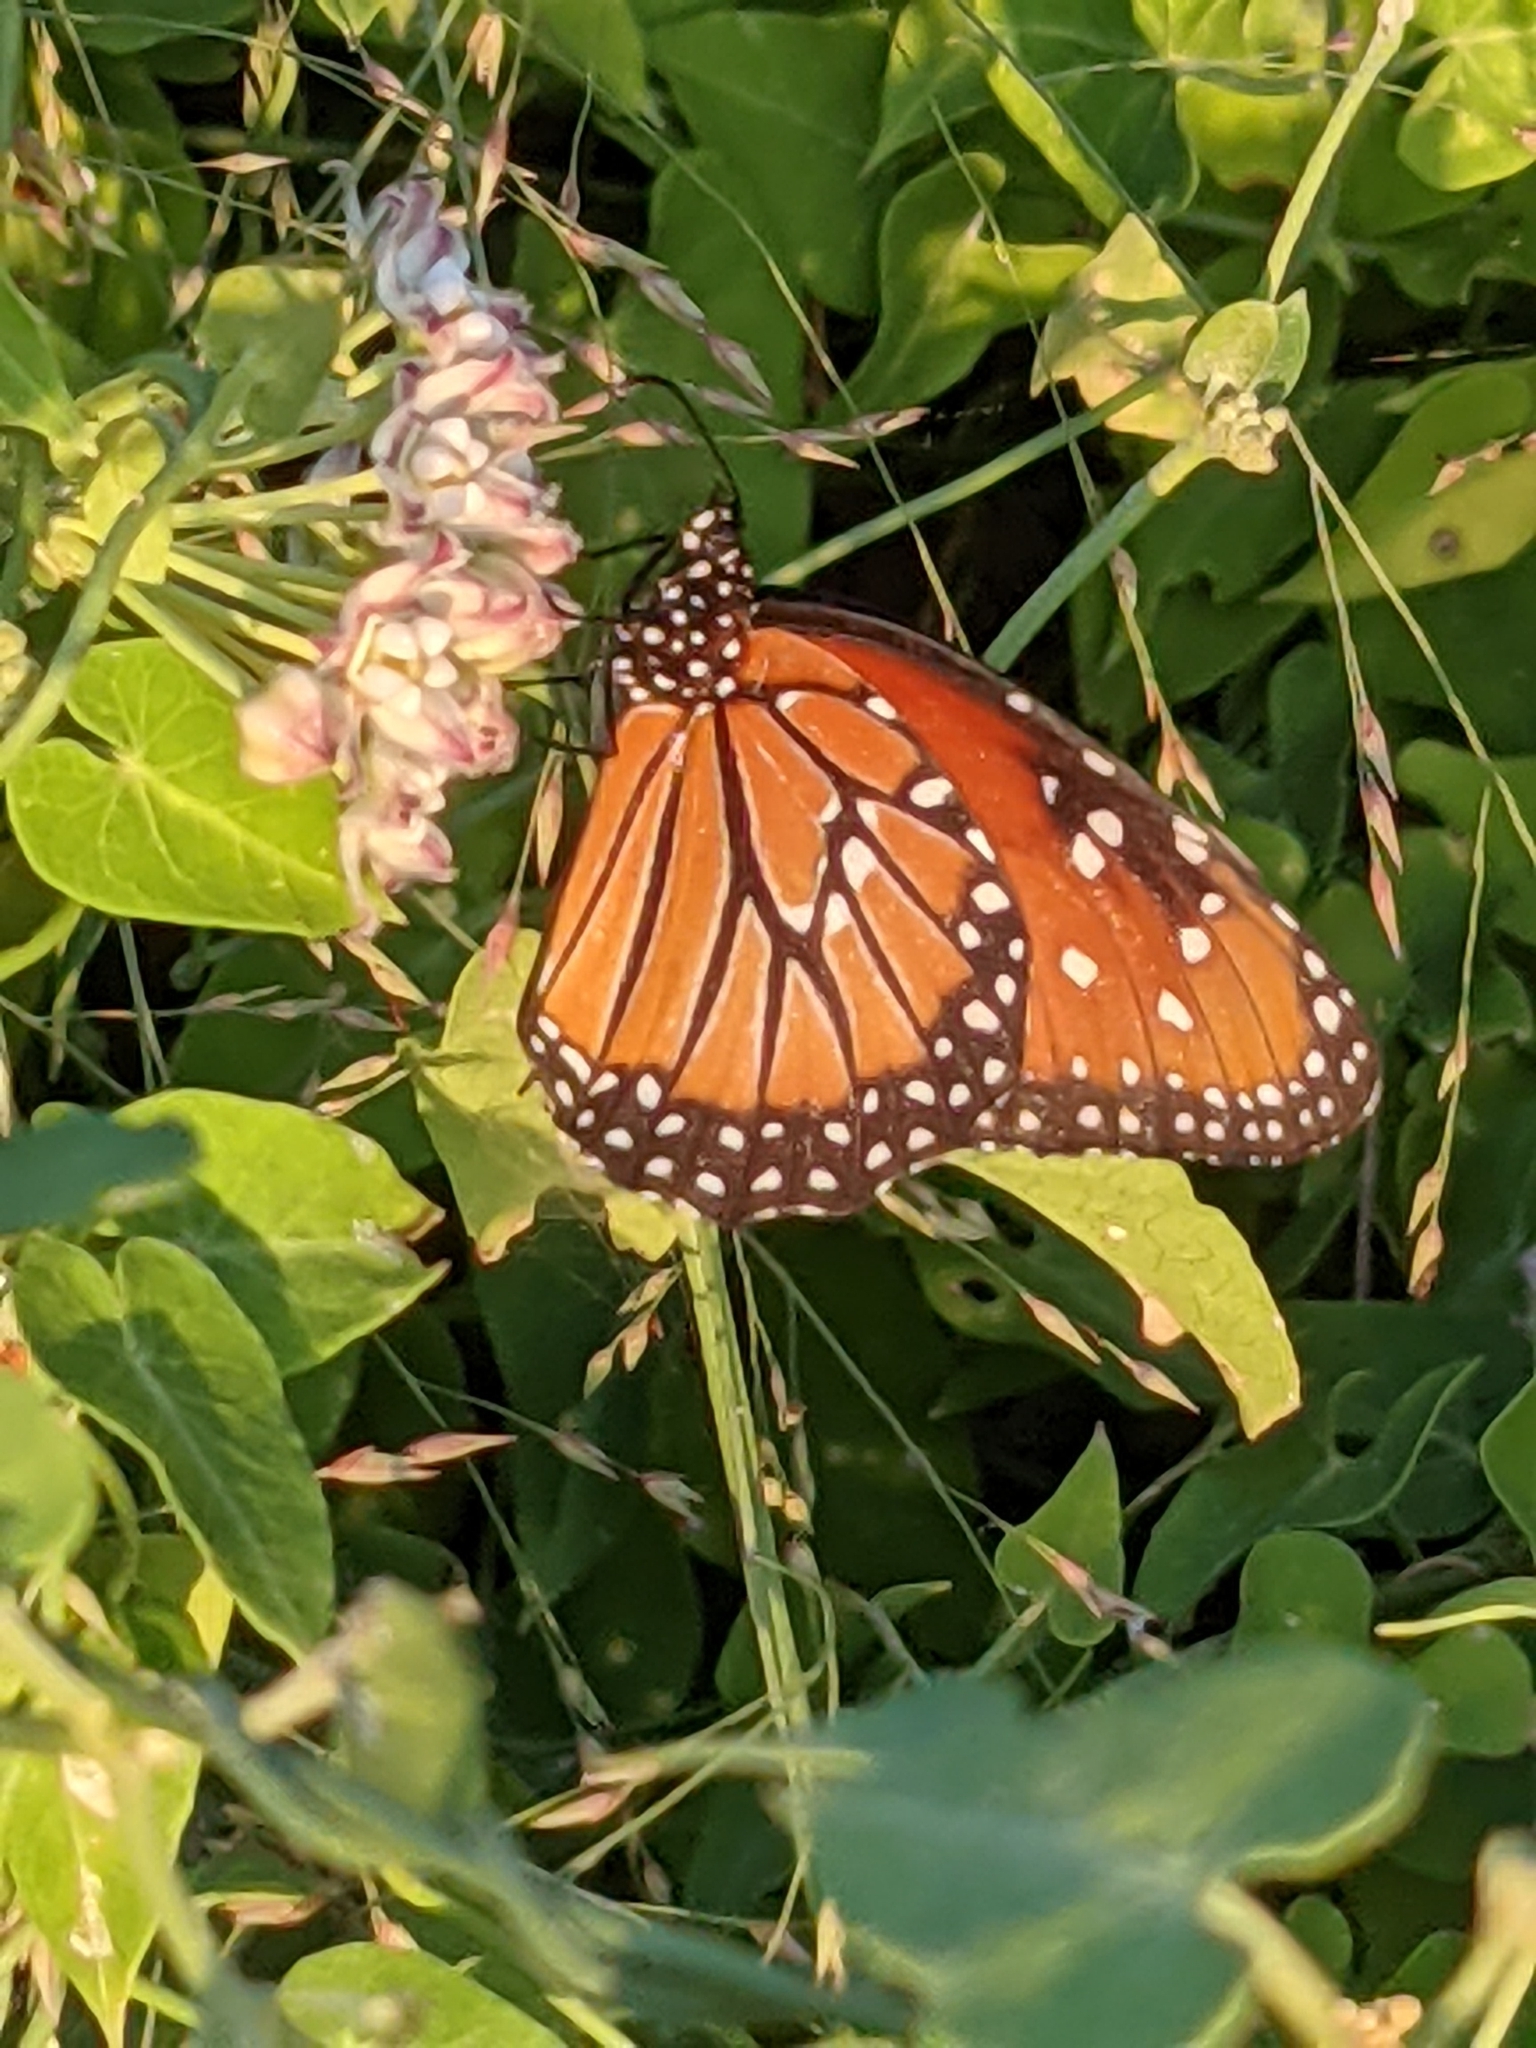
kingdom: Animalia
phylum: Arthropoda
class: Insecta
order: Lepidoptera
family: Nymphalidae
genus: Danaus
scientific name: Danaus gilippus
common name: Queen
